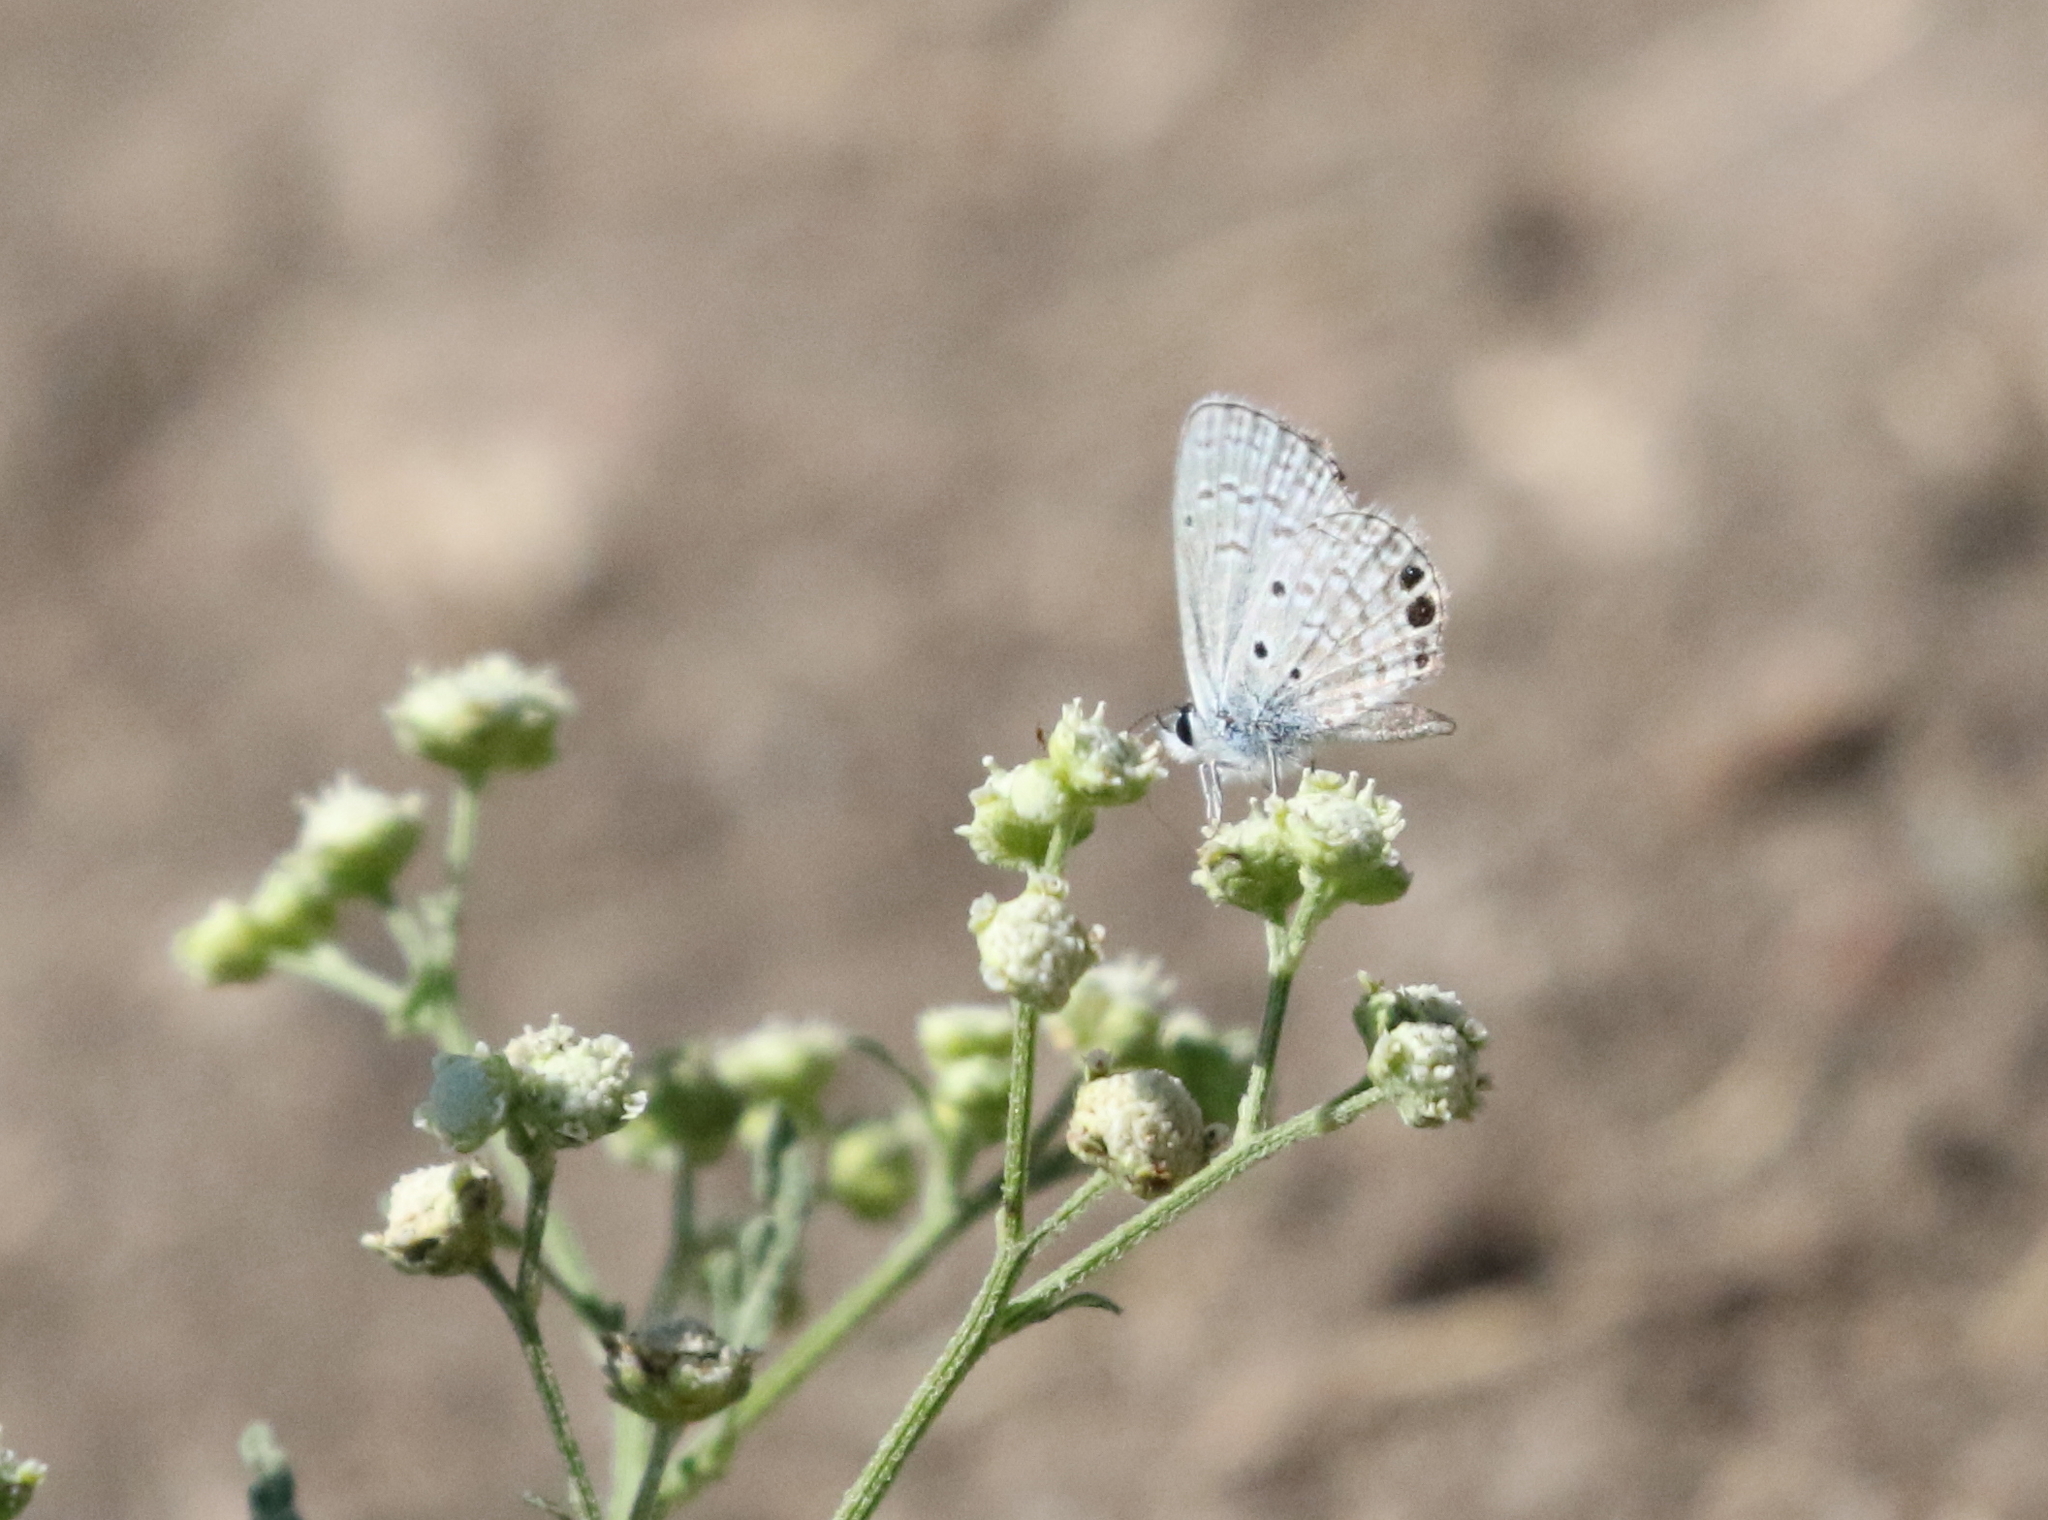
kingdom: Animalia
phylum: Arthropoda
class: Insecta
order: Lepidoptera
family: Lycaenidae
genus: Hemiargus
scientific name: Hemiargus ceraunus
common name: Ceraunus blue
